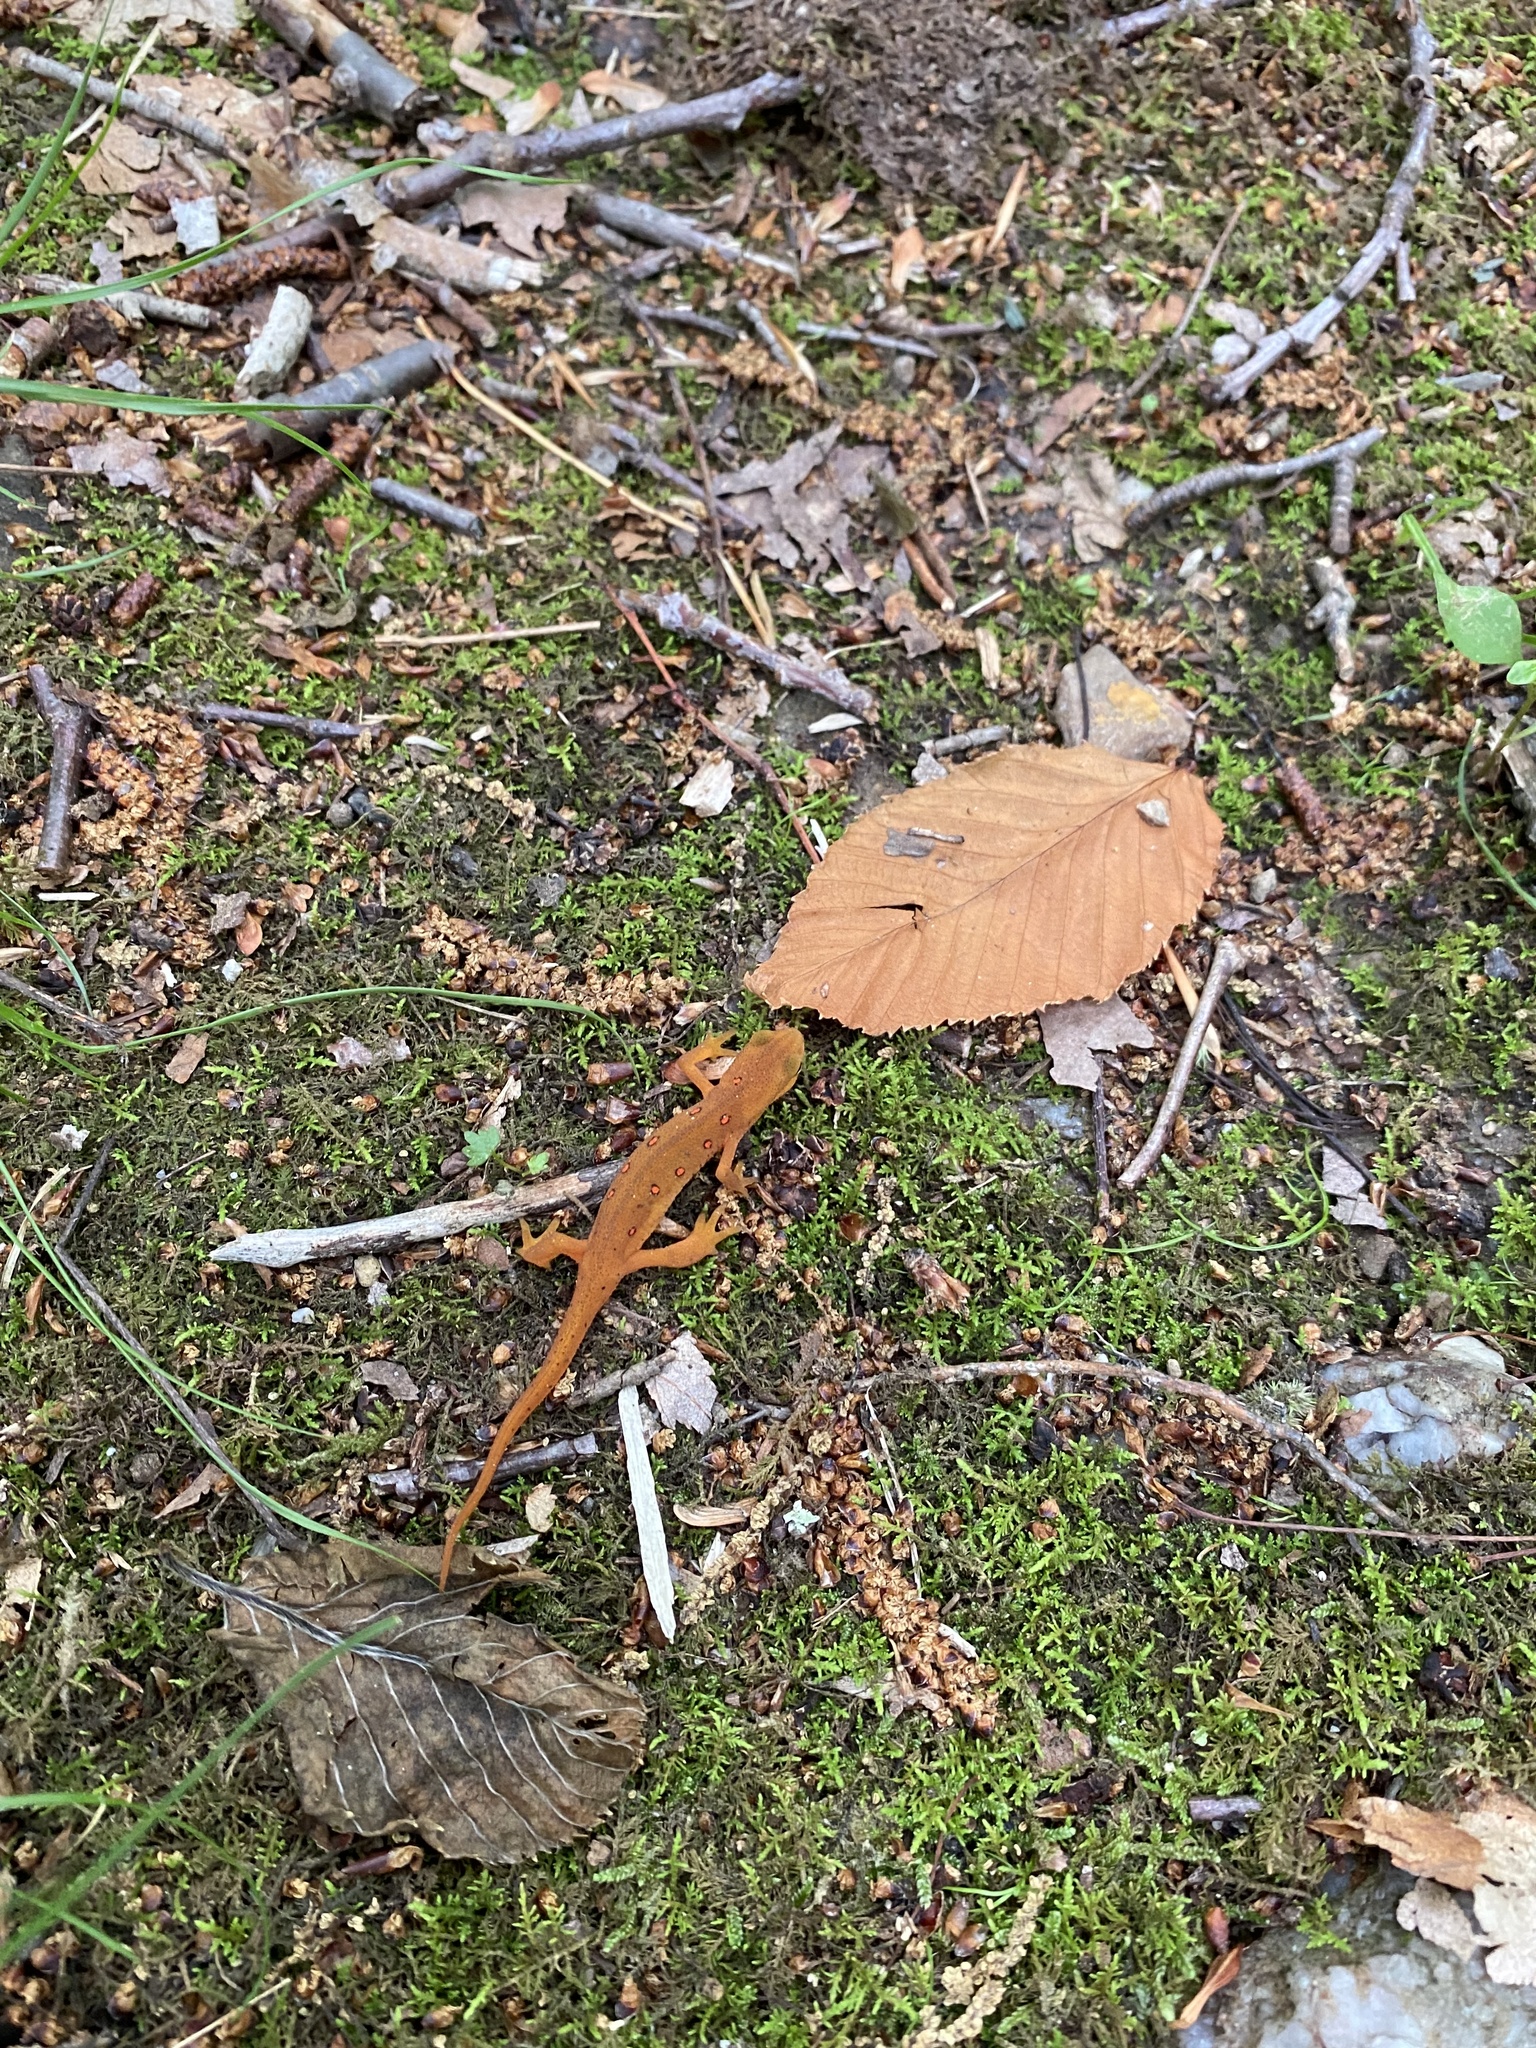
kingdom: Animalia
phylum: Chordata
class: Amphibia
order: Caudata
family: Salamandridae
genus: Notophthalmus
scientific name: Notophthalmus viridescens
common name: Eastern newt
